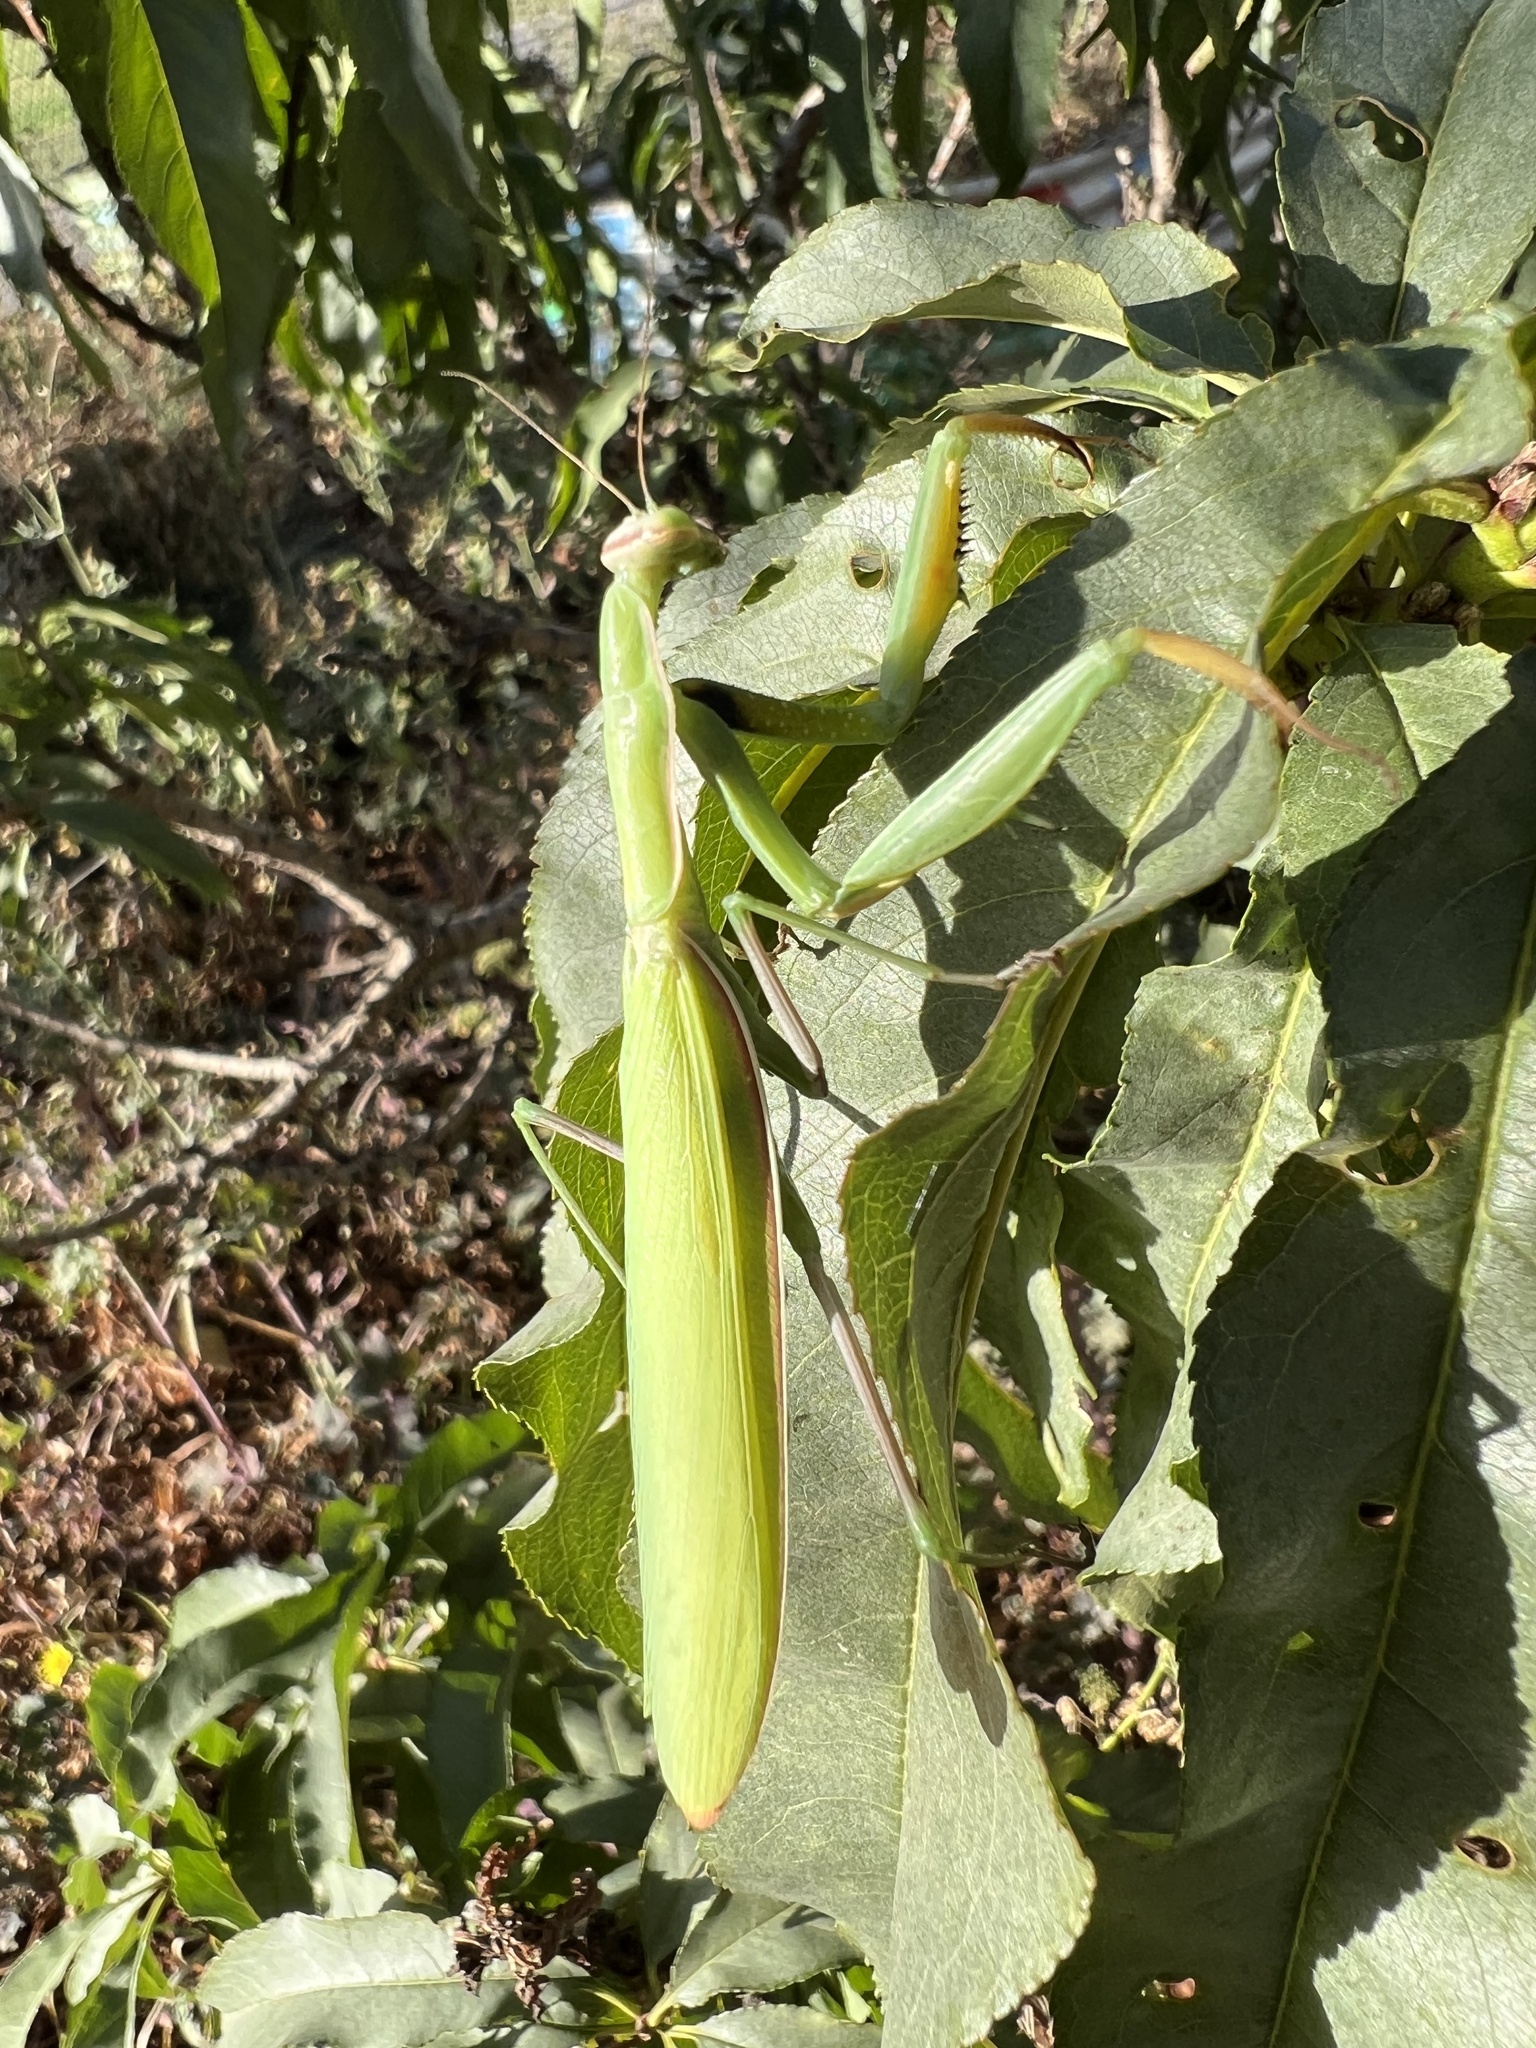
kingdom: Animalia
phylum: Arthropoda
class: Insecta
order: Mantodea
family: Mantidae
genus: Mantis
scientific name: Mantis octospilota
